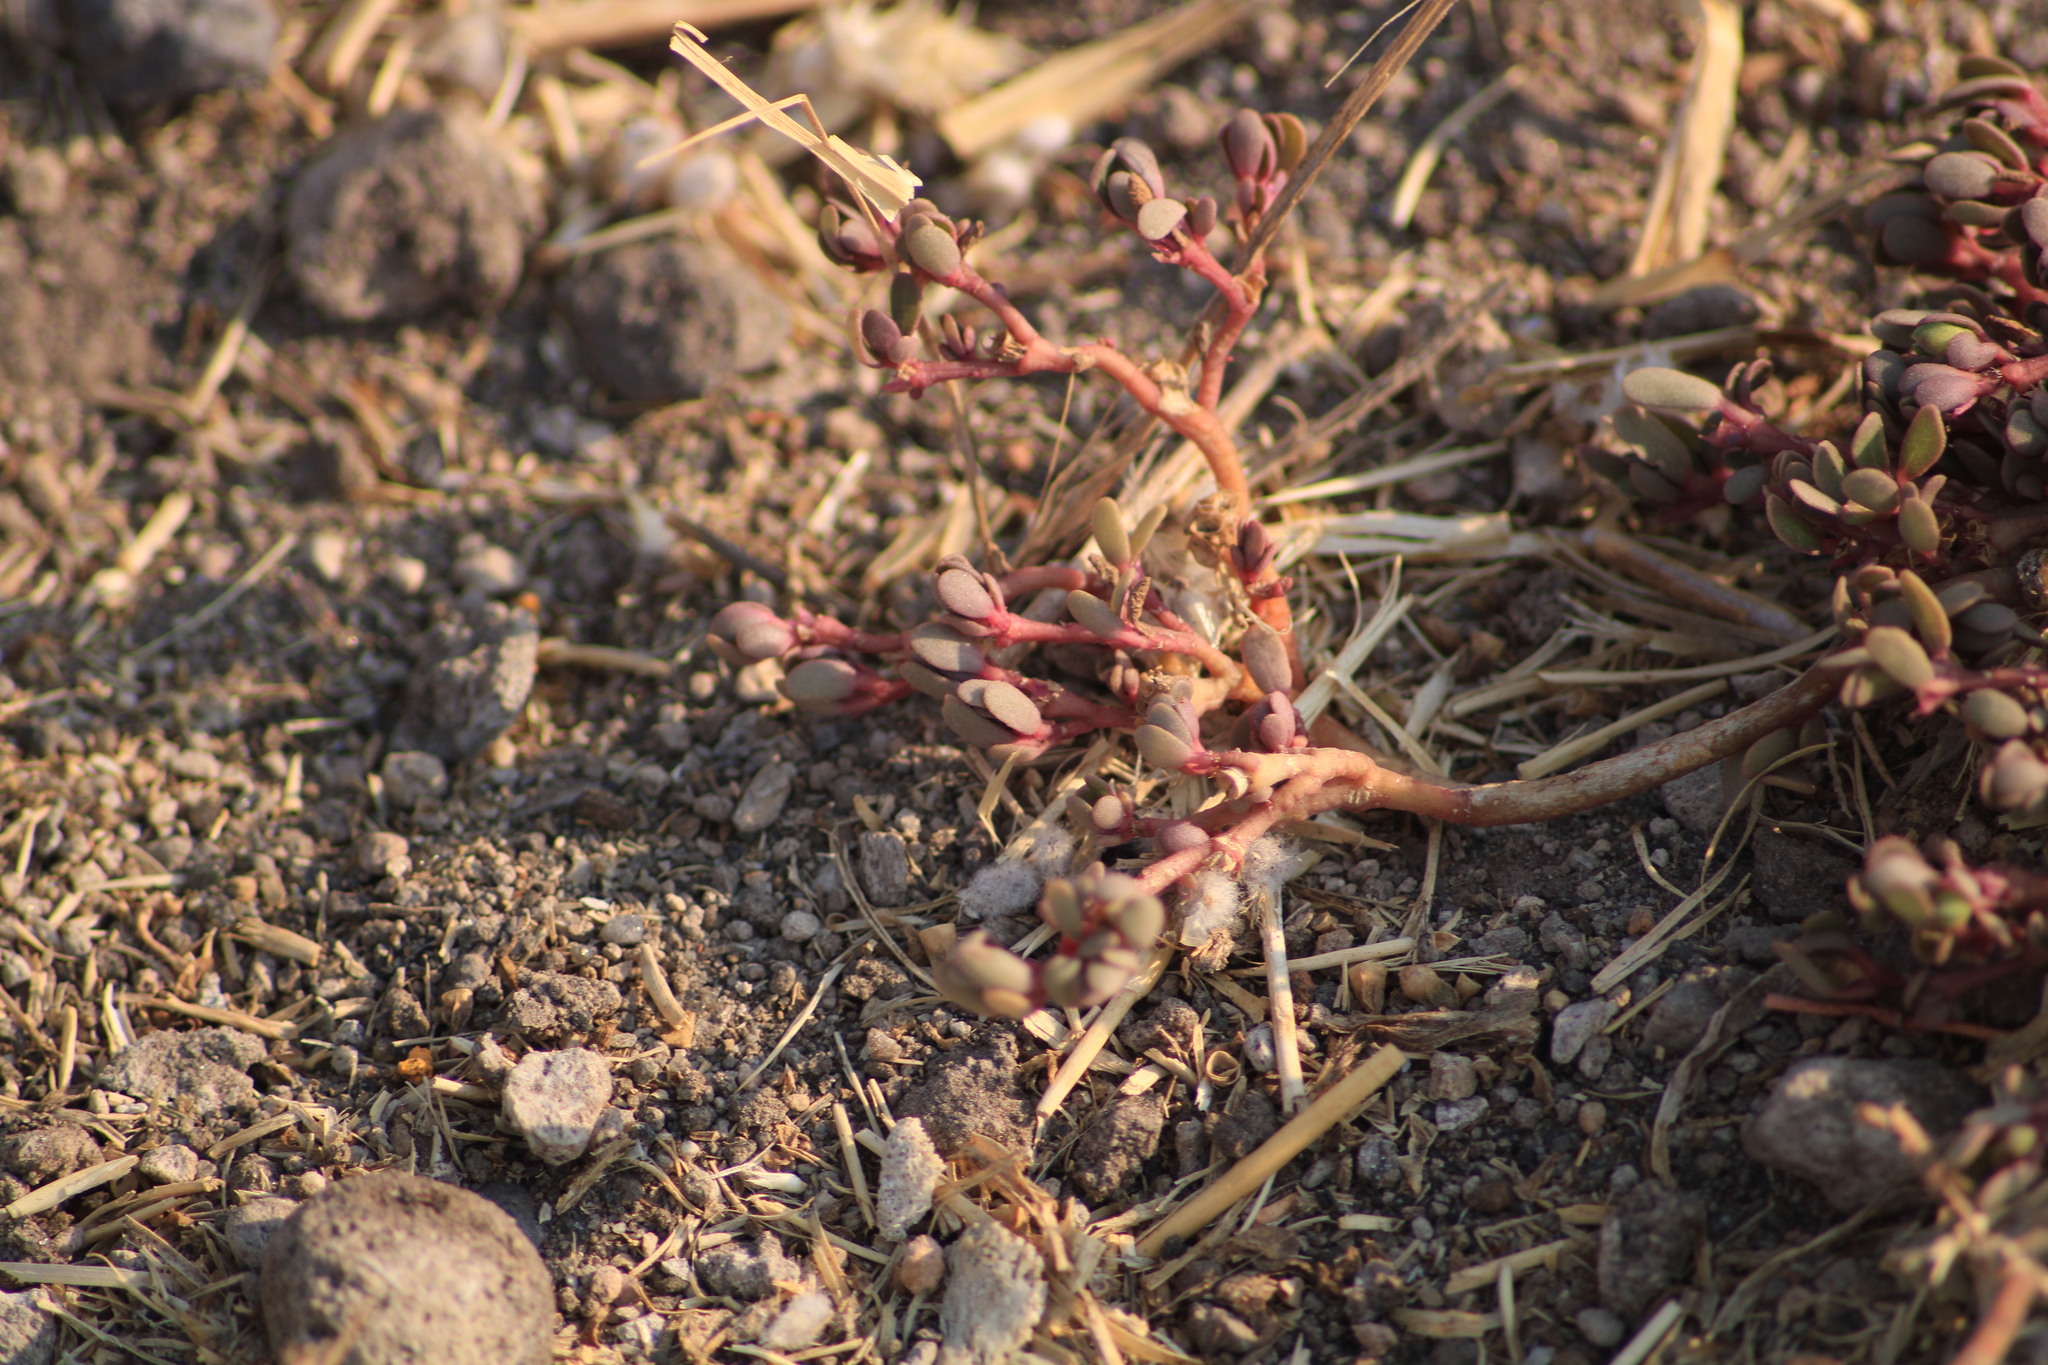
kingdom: Plantae
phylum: Tracheophyta
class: Magnoliopsida
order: Caryophyllales
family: Aizoaceae
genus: Trianthema
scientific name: Trianthema portulacastrum
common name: Desert horsepurslane
